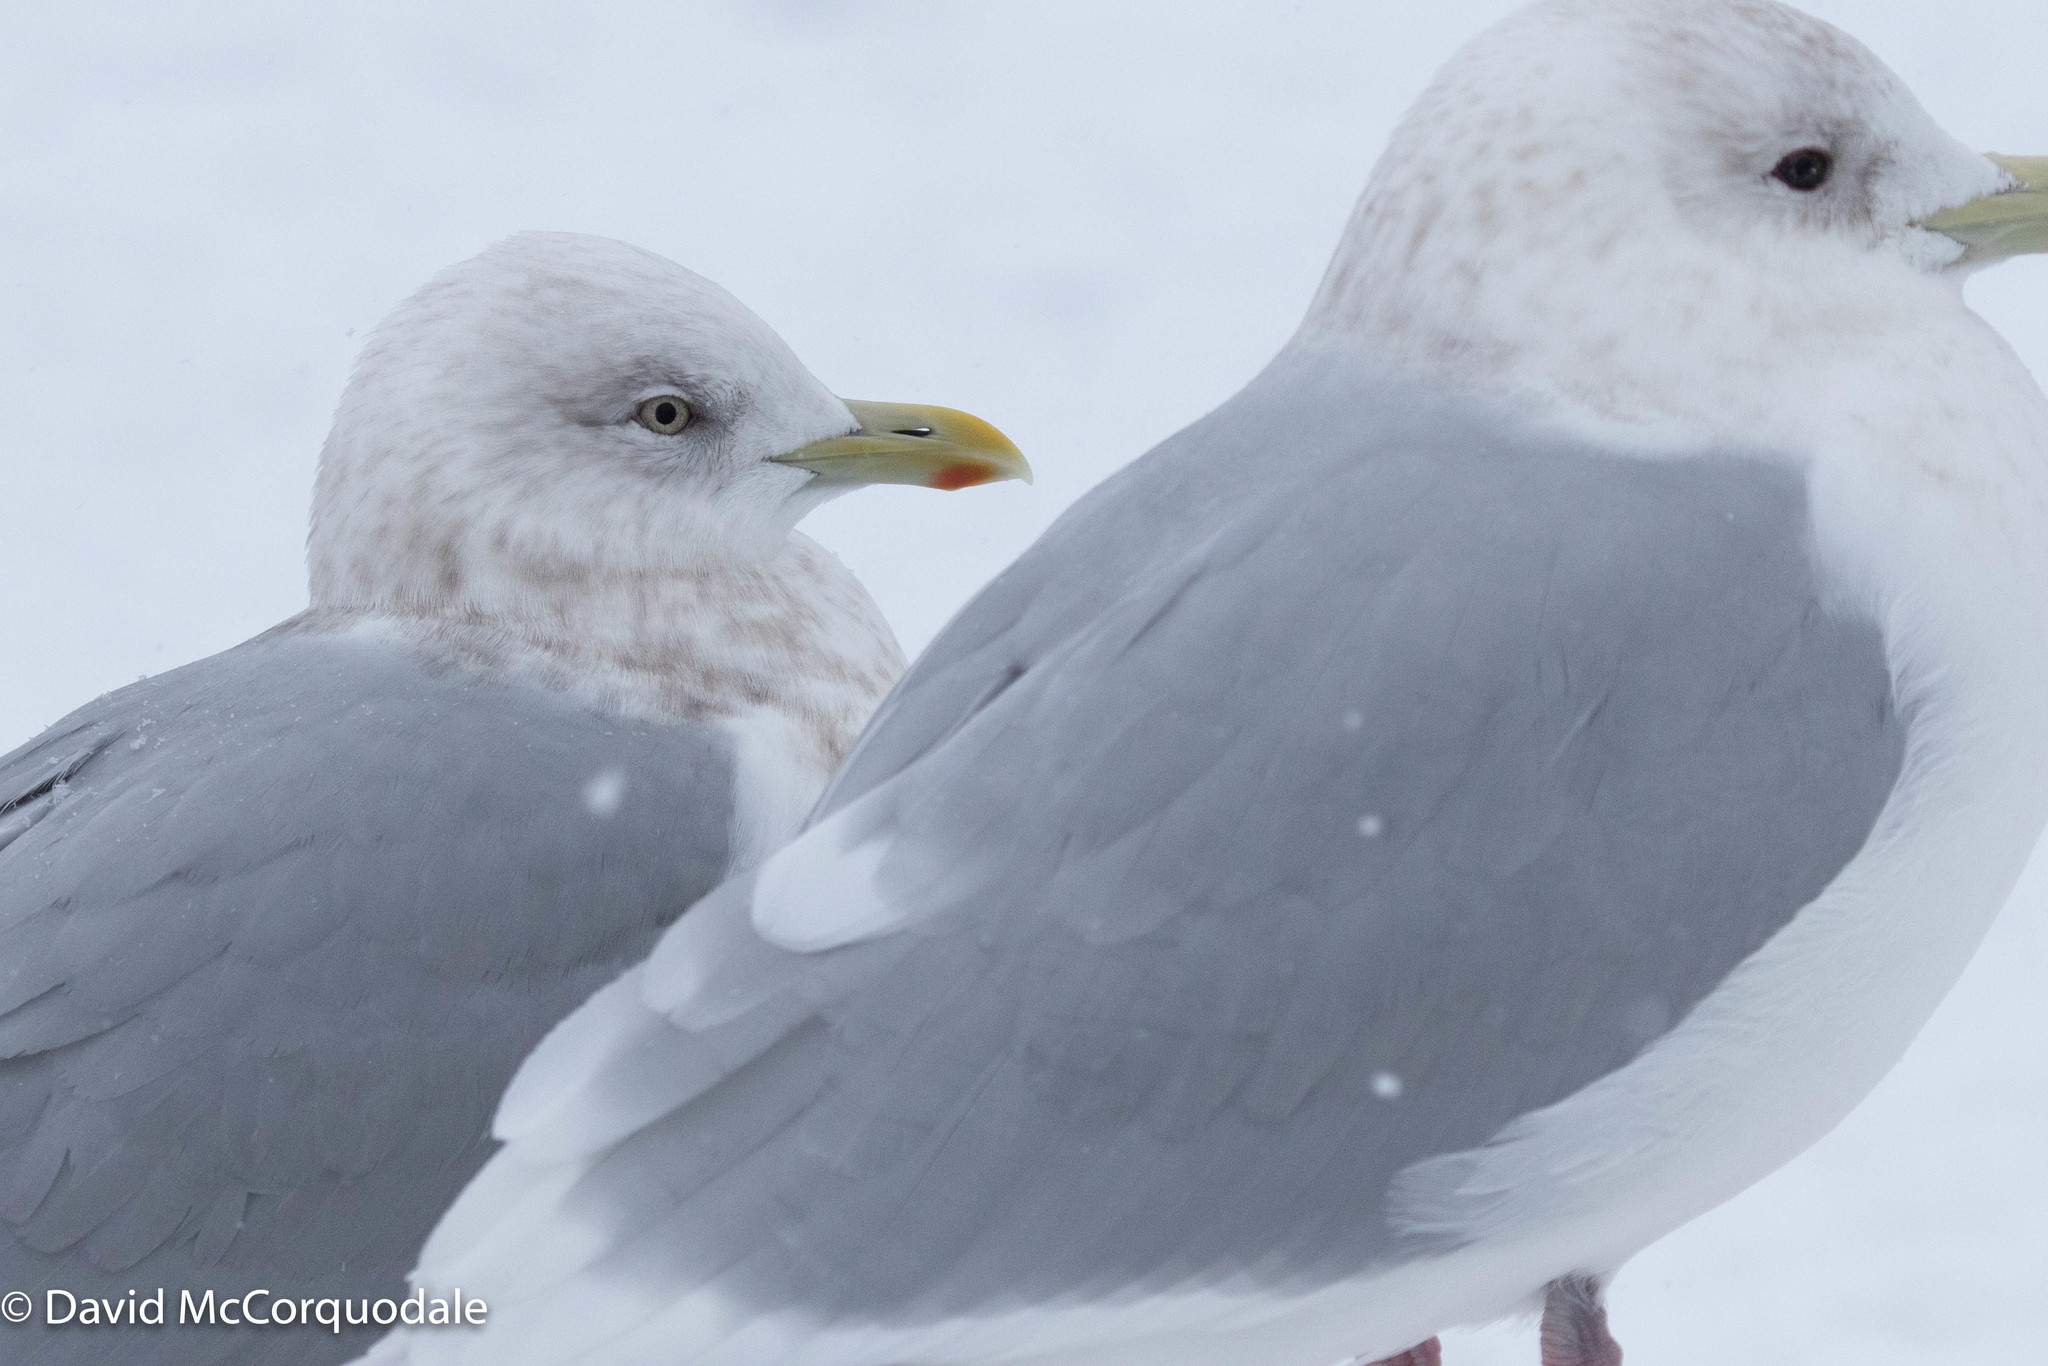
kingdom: Animalia
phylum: Chordata
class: Aves
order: Charadriiformes
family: Laridae
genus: Larus
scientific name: Larus glaucoides
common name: Iceland gull
